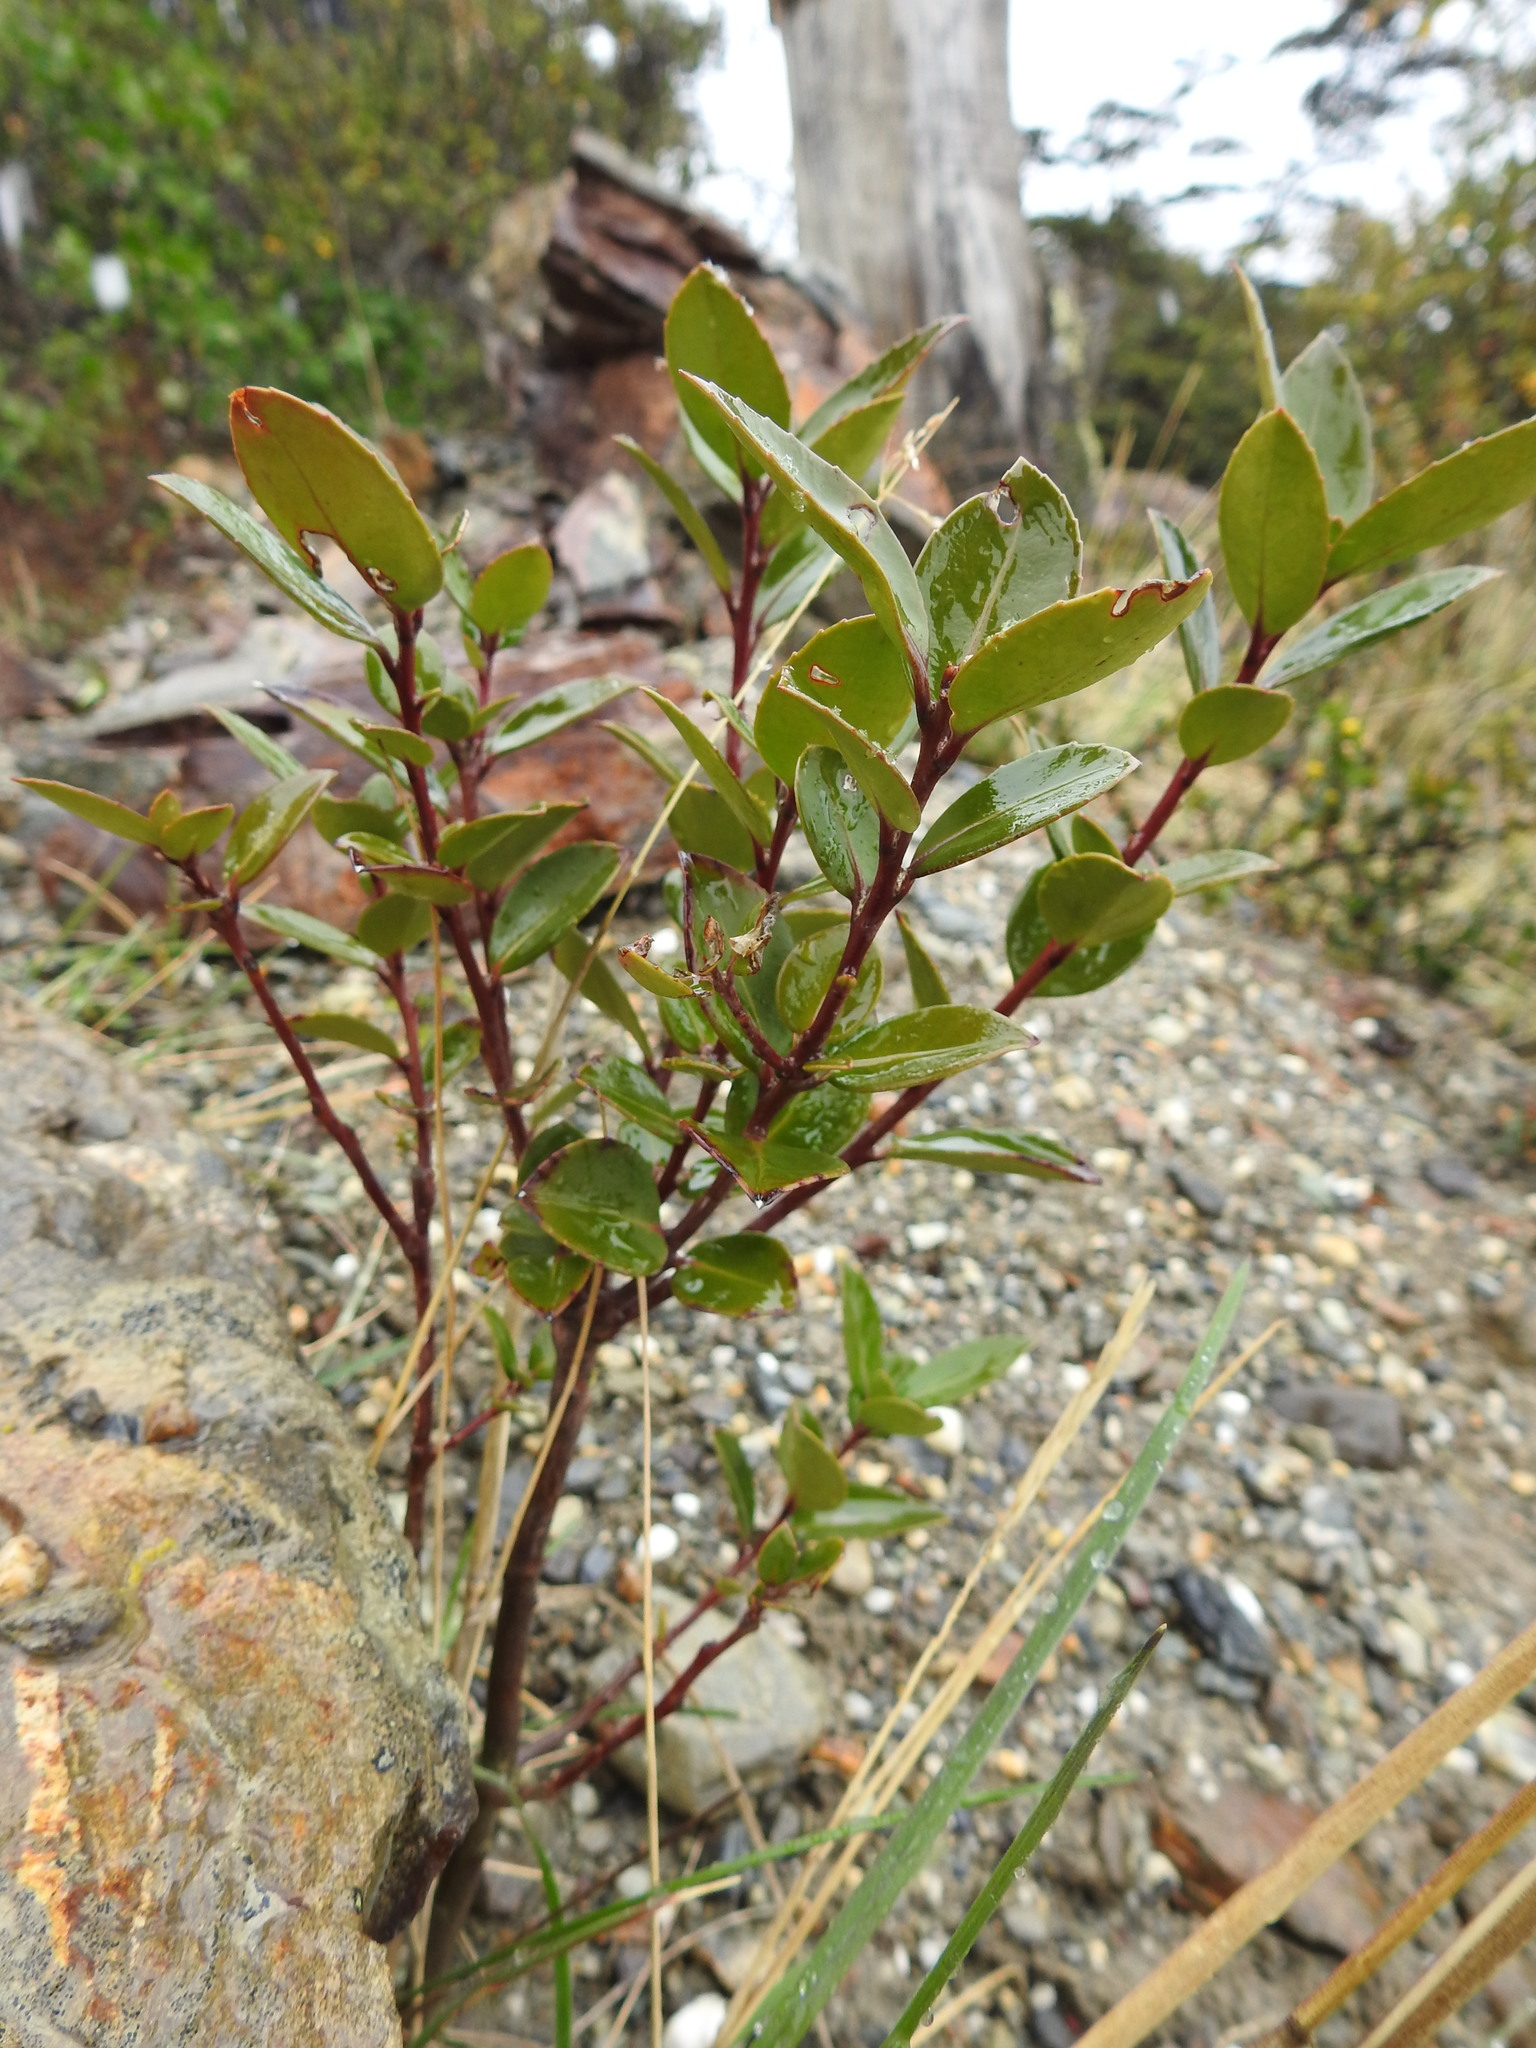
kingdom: Plantae
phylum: Tracheophyta
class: Magnoliopsida
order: Celastrales
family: Celastraceae
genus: Maytenus
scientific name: Maytenus magellanica
